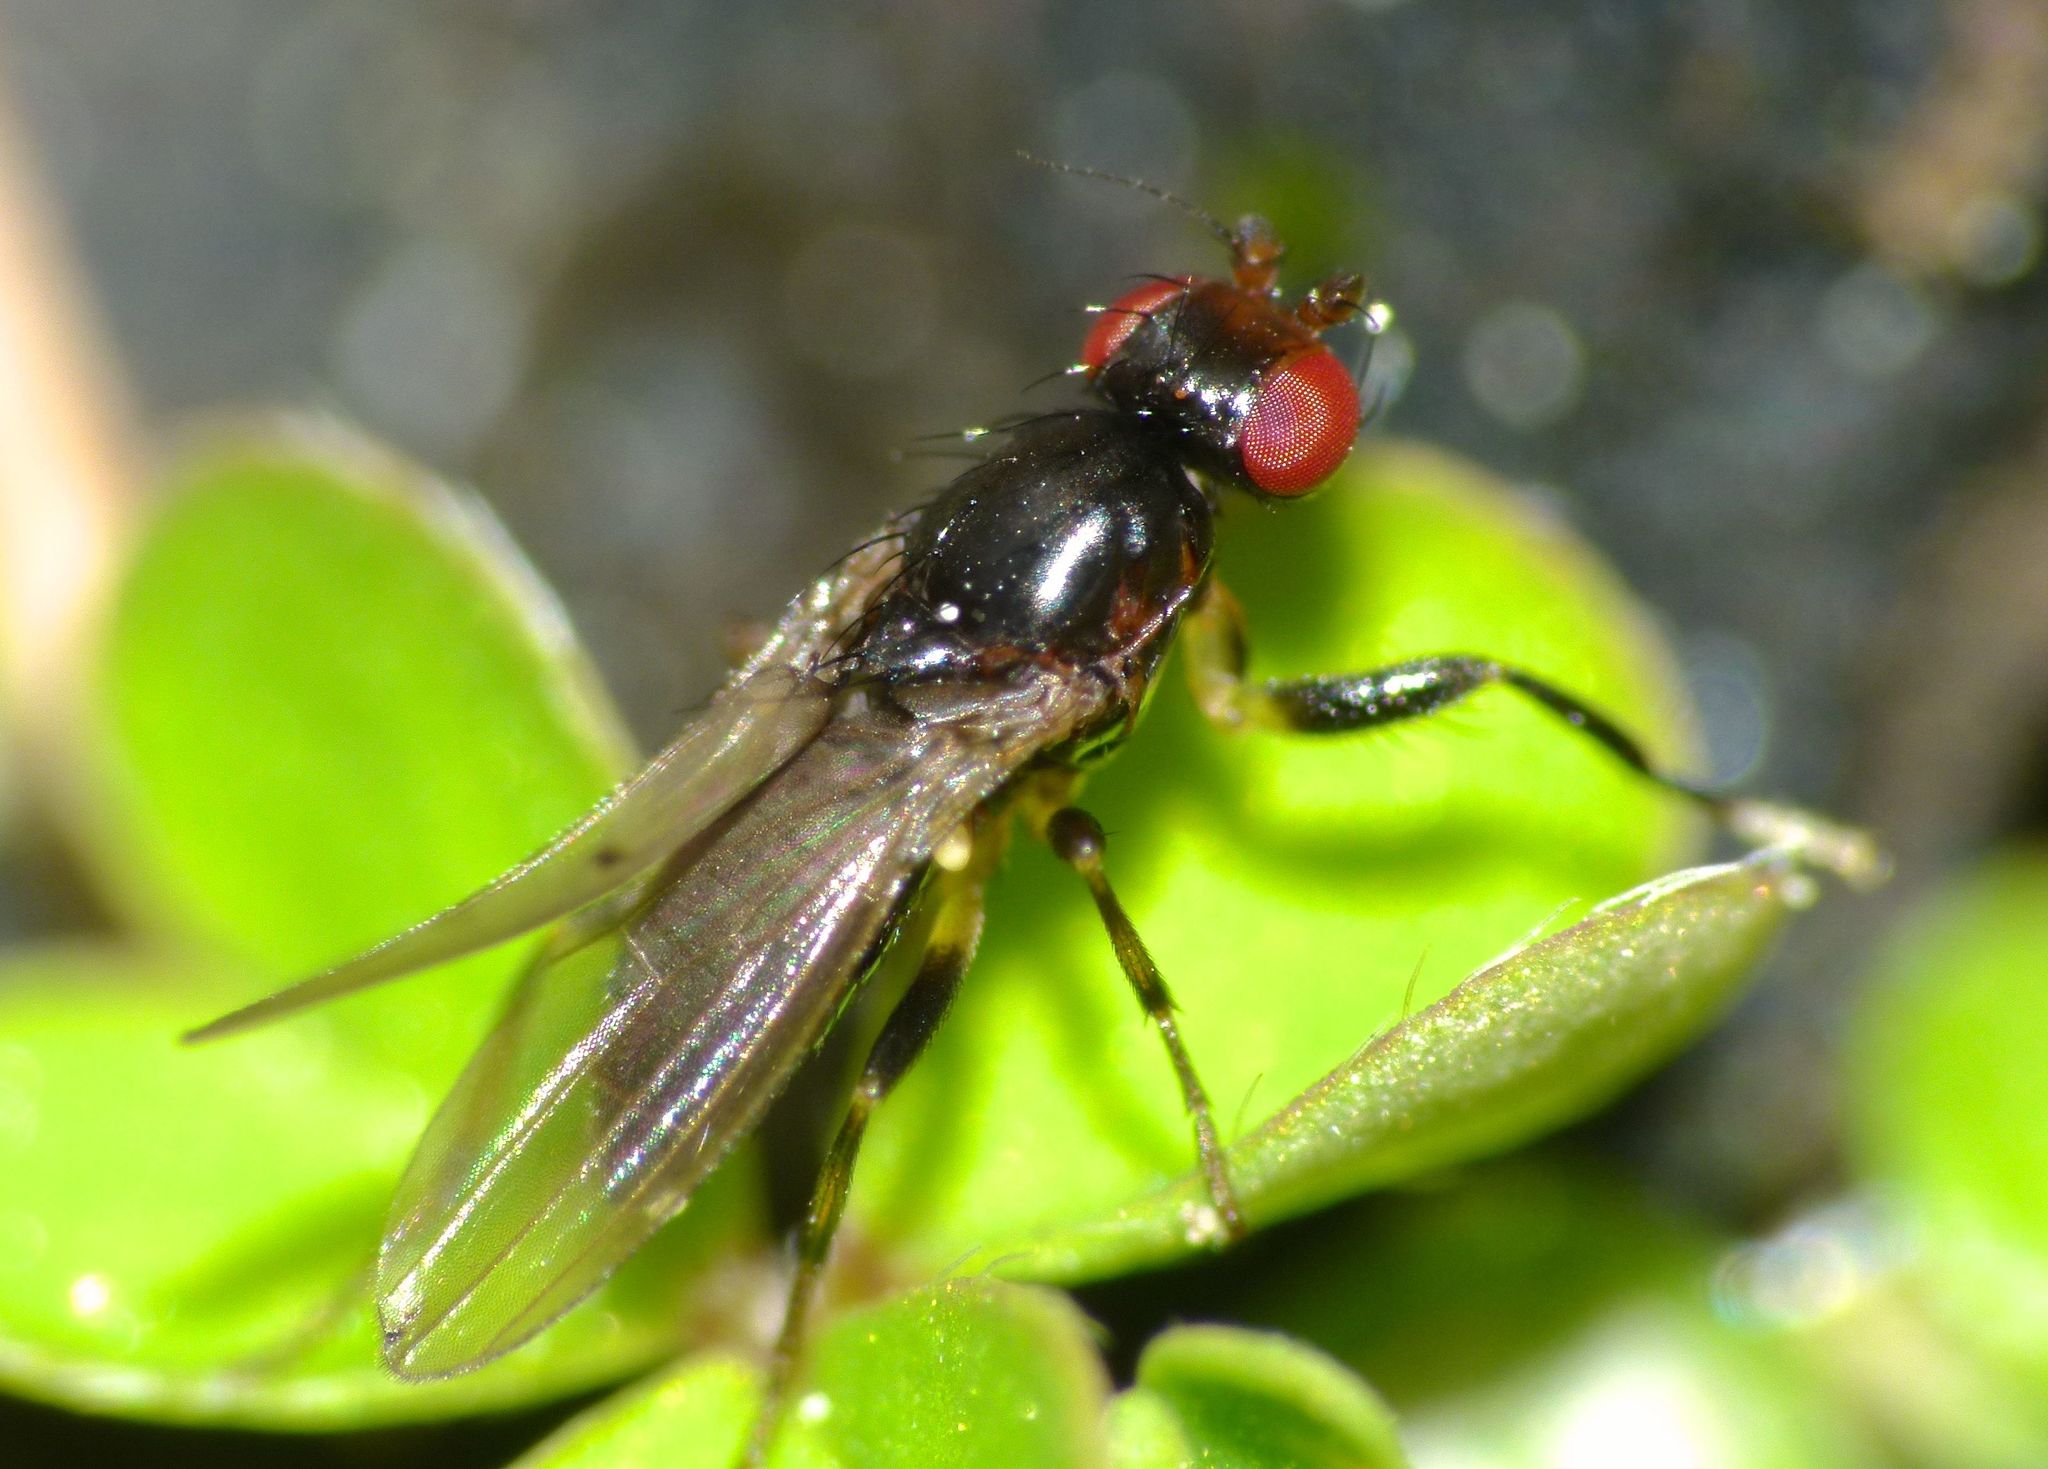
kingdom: Animalia
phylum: Arthropoda
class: Insecta
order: Diptera
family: Cypselosomatidae
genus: Pseudopomyza
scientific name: Pseudopomyza flavitarsis
